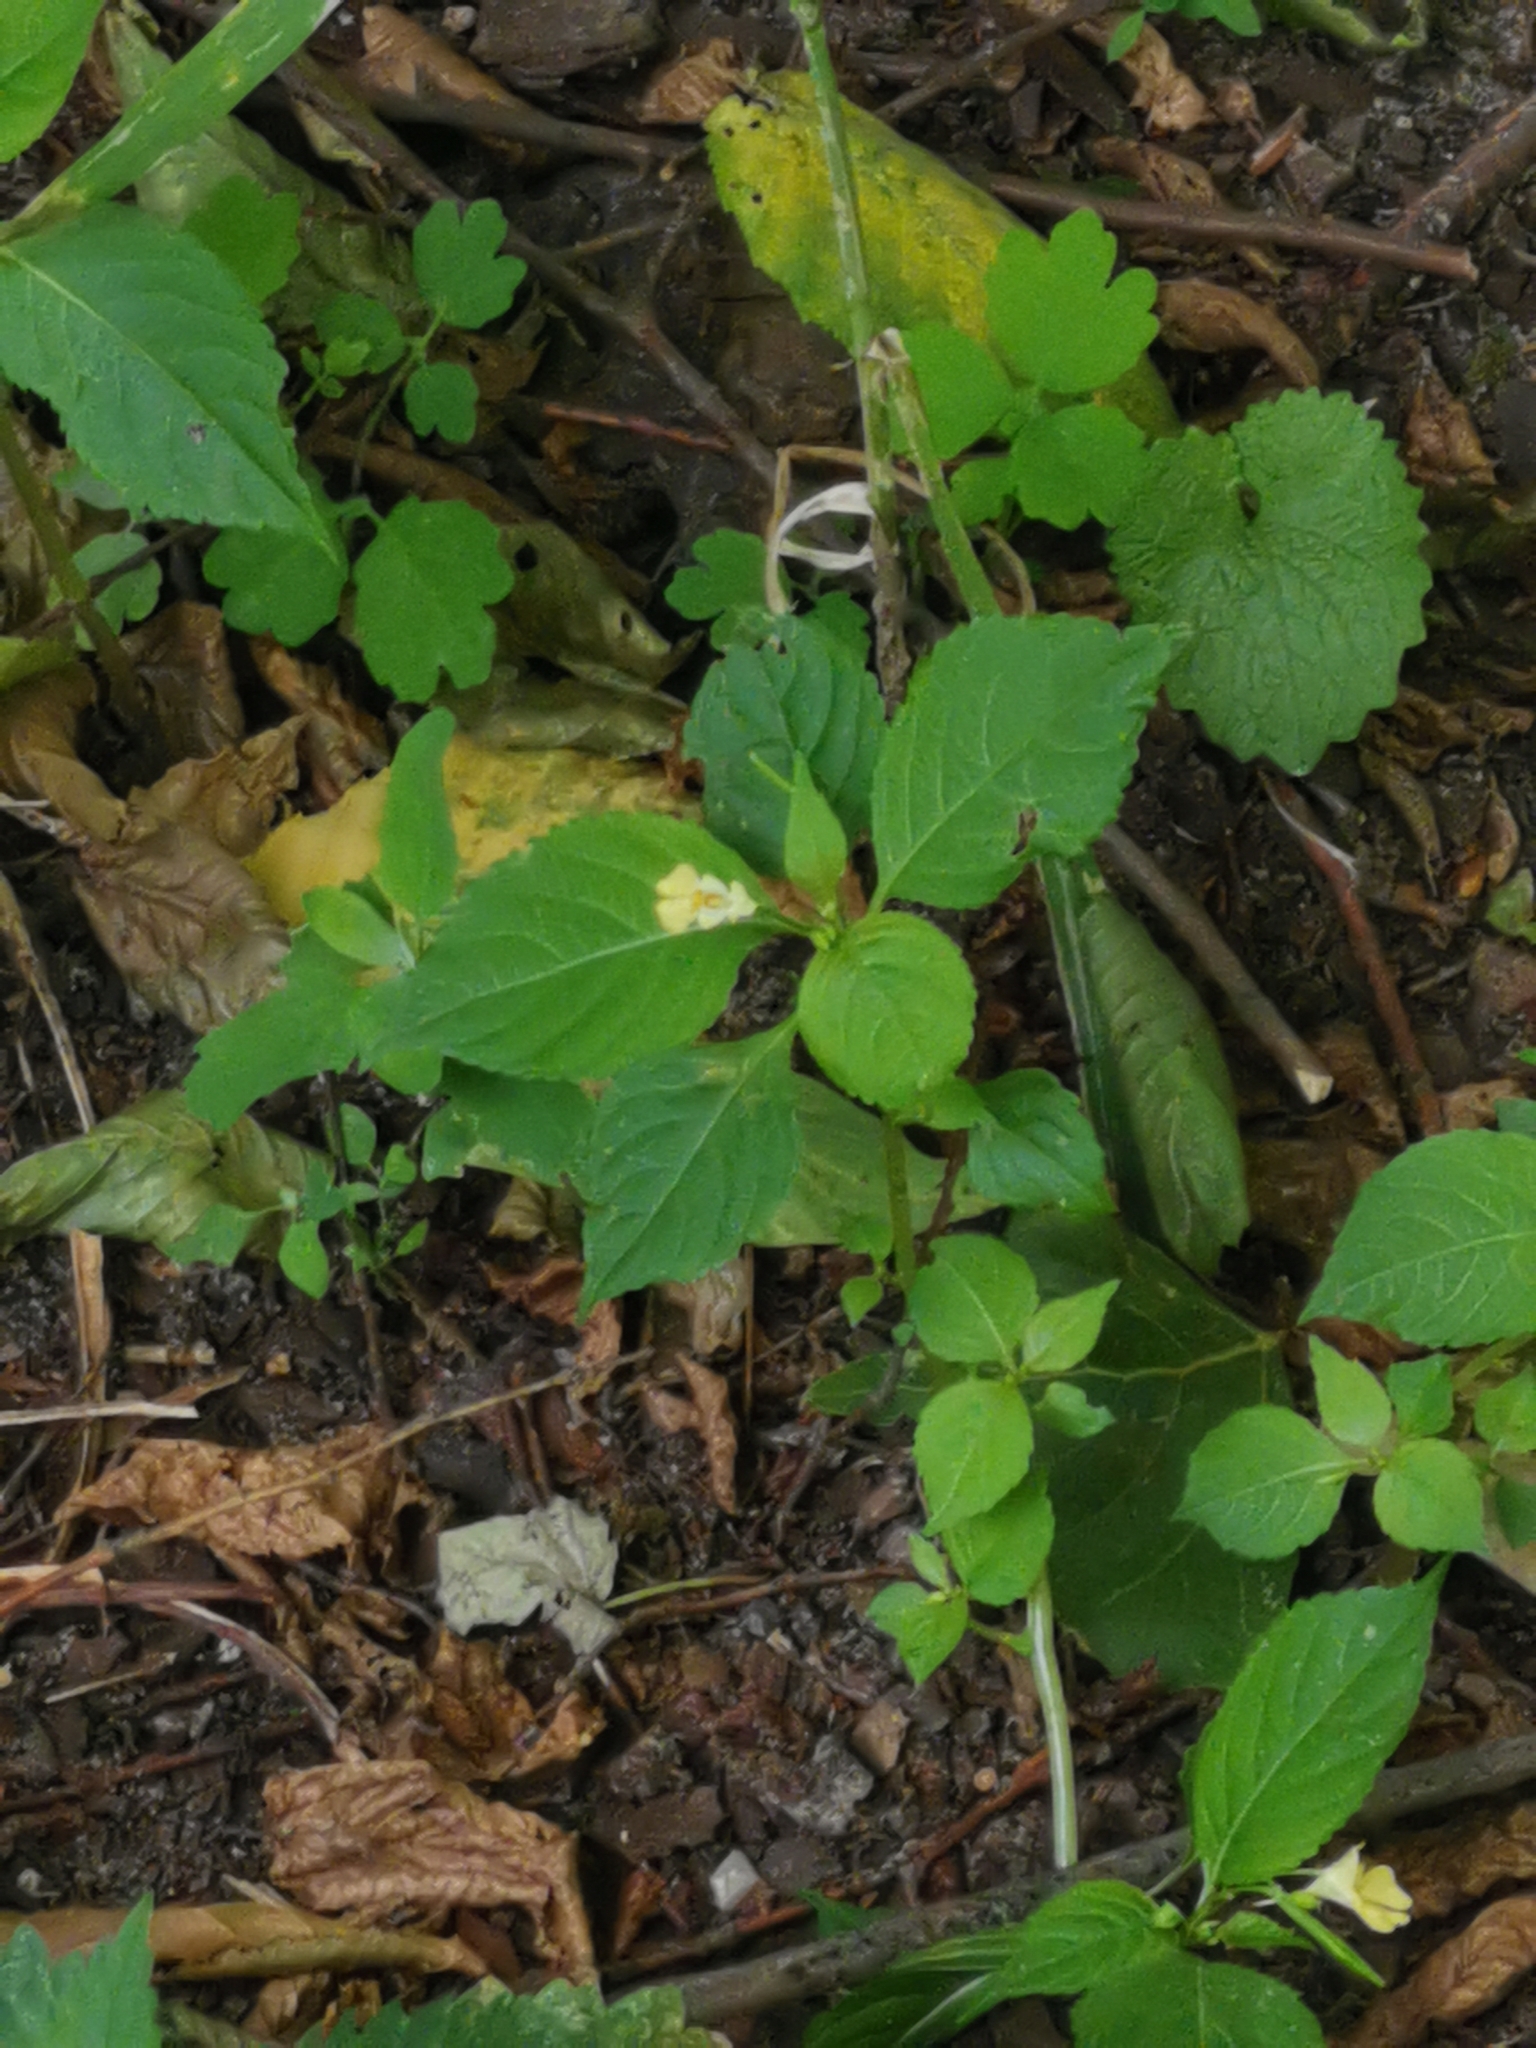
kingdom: Plantae
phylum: Tracheophyta
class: Magnoliopsida
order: Ericales
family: Balsaminaceae
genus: Impatiens
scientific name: Impatiens parviflora
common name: Small balsam
